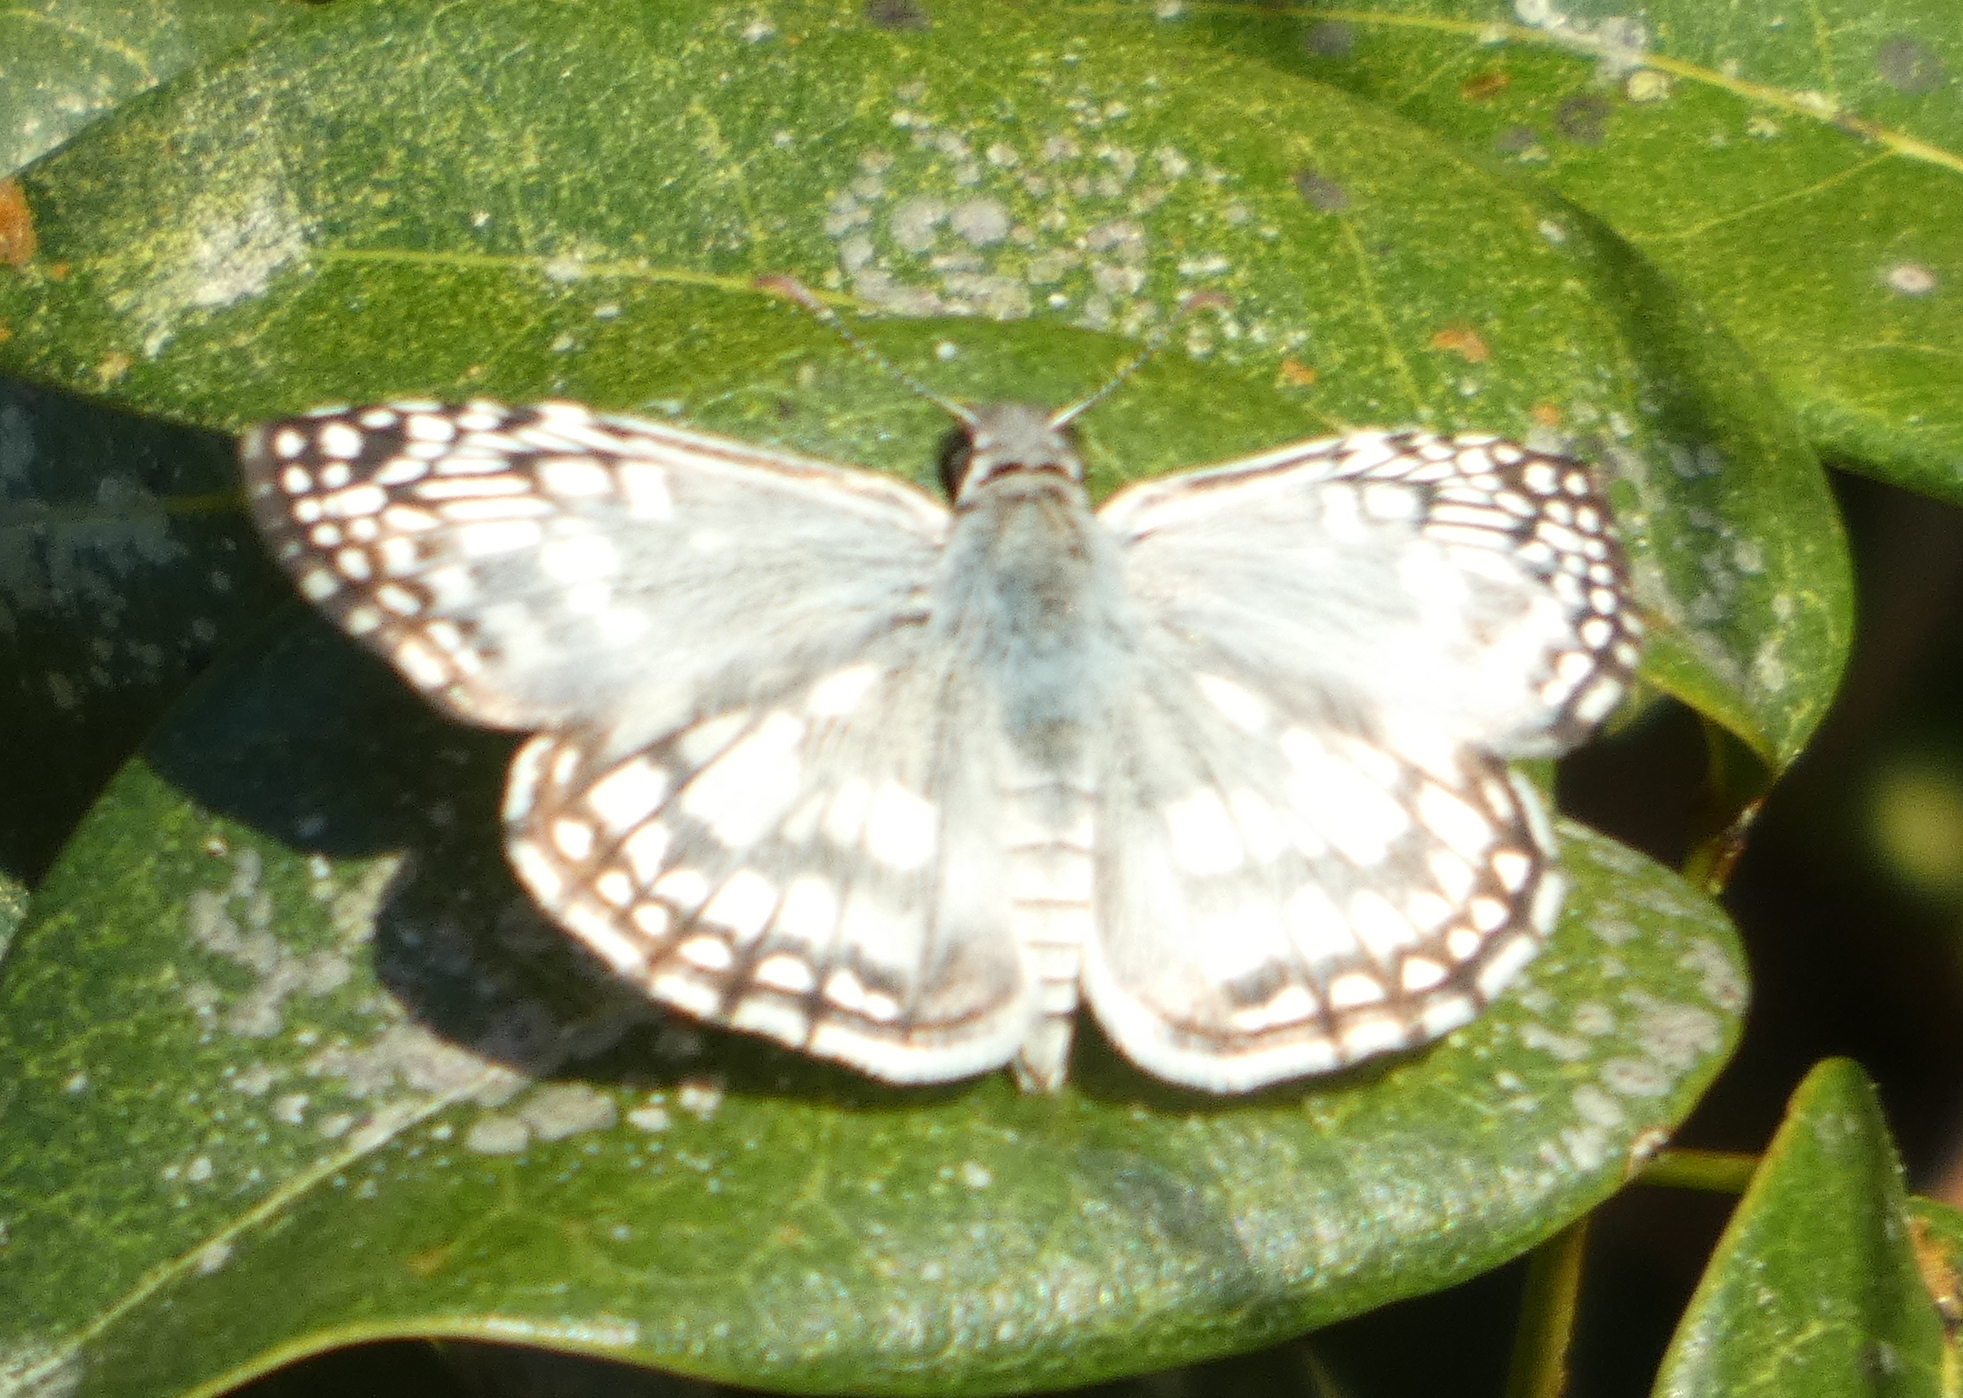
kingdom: Animalia
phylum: Arthropoda
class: Insecta
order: Lepidoptera
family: Hesperiidae
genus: Pyrgus
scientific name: Pyrgus oileus
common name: Tropical checkered-skipper
